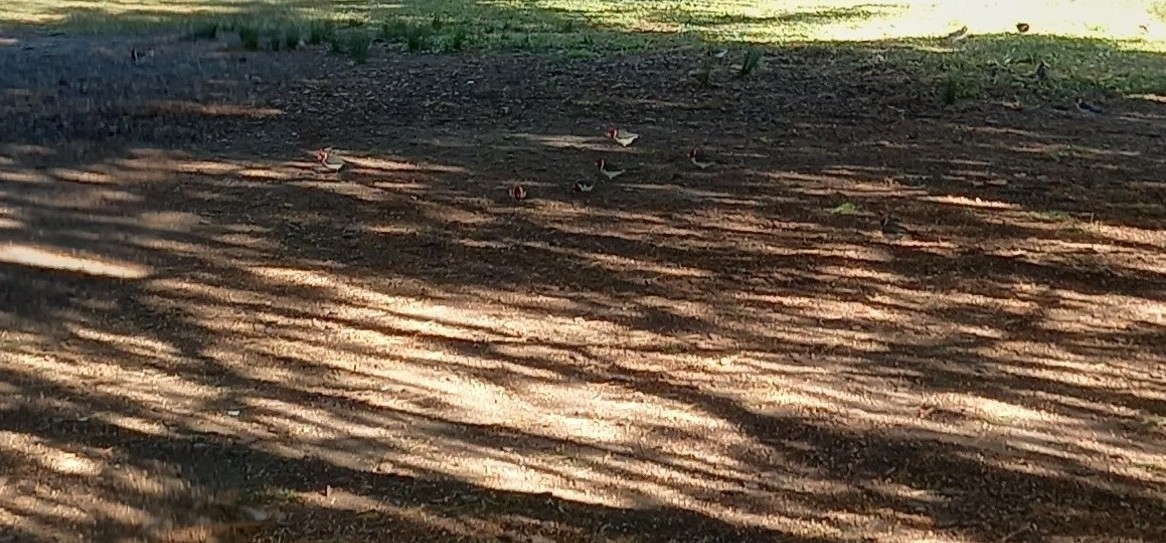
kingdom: Animalia
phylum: Chordata
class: Aves
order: Passeriformes
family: Thraupidae
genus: Paroaria
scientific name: Paroaria coronata
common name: Red-crested cardinal
